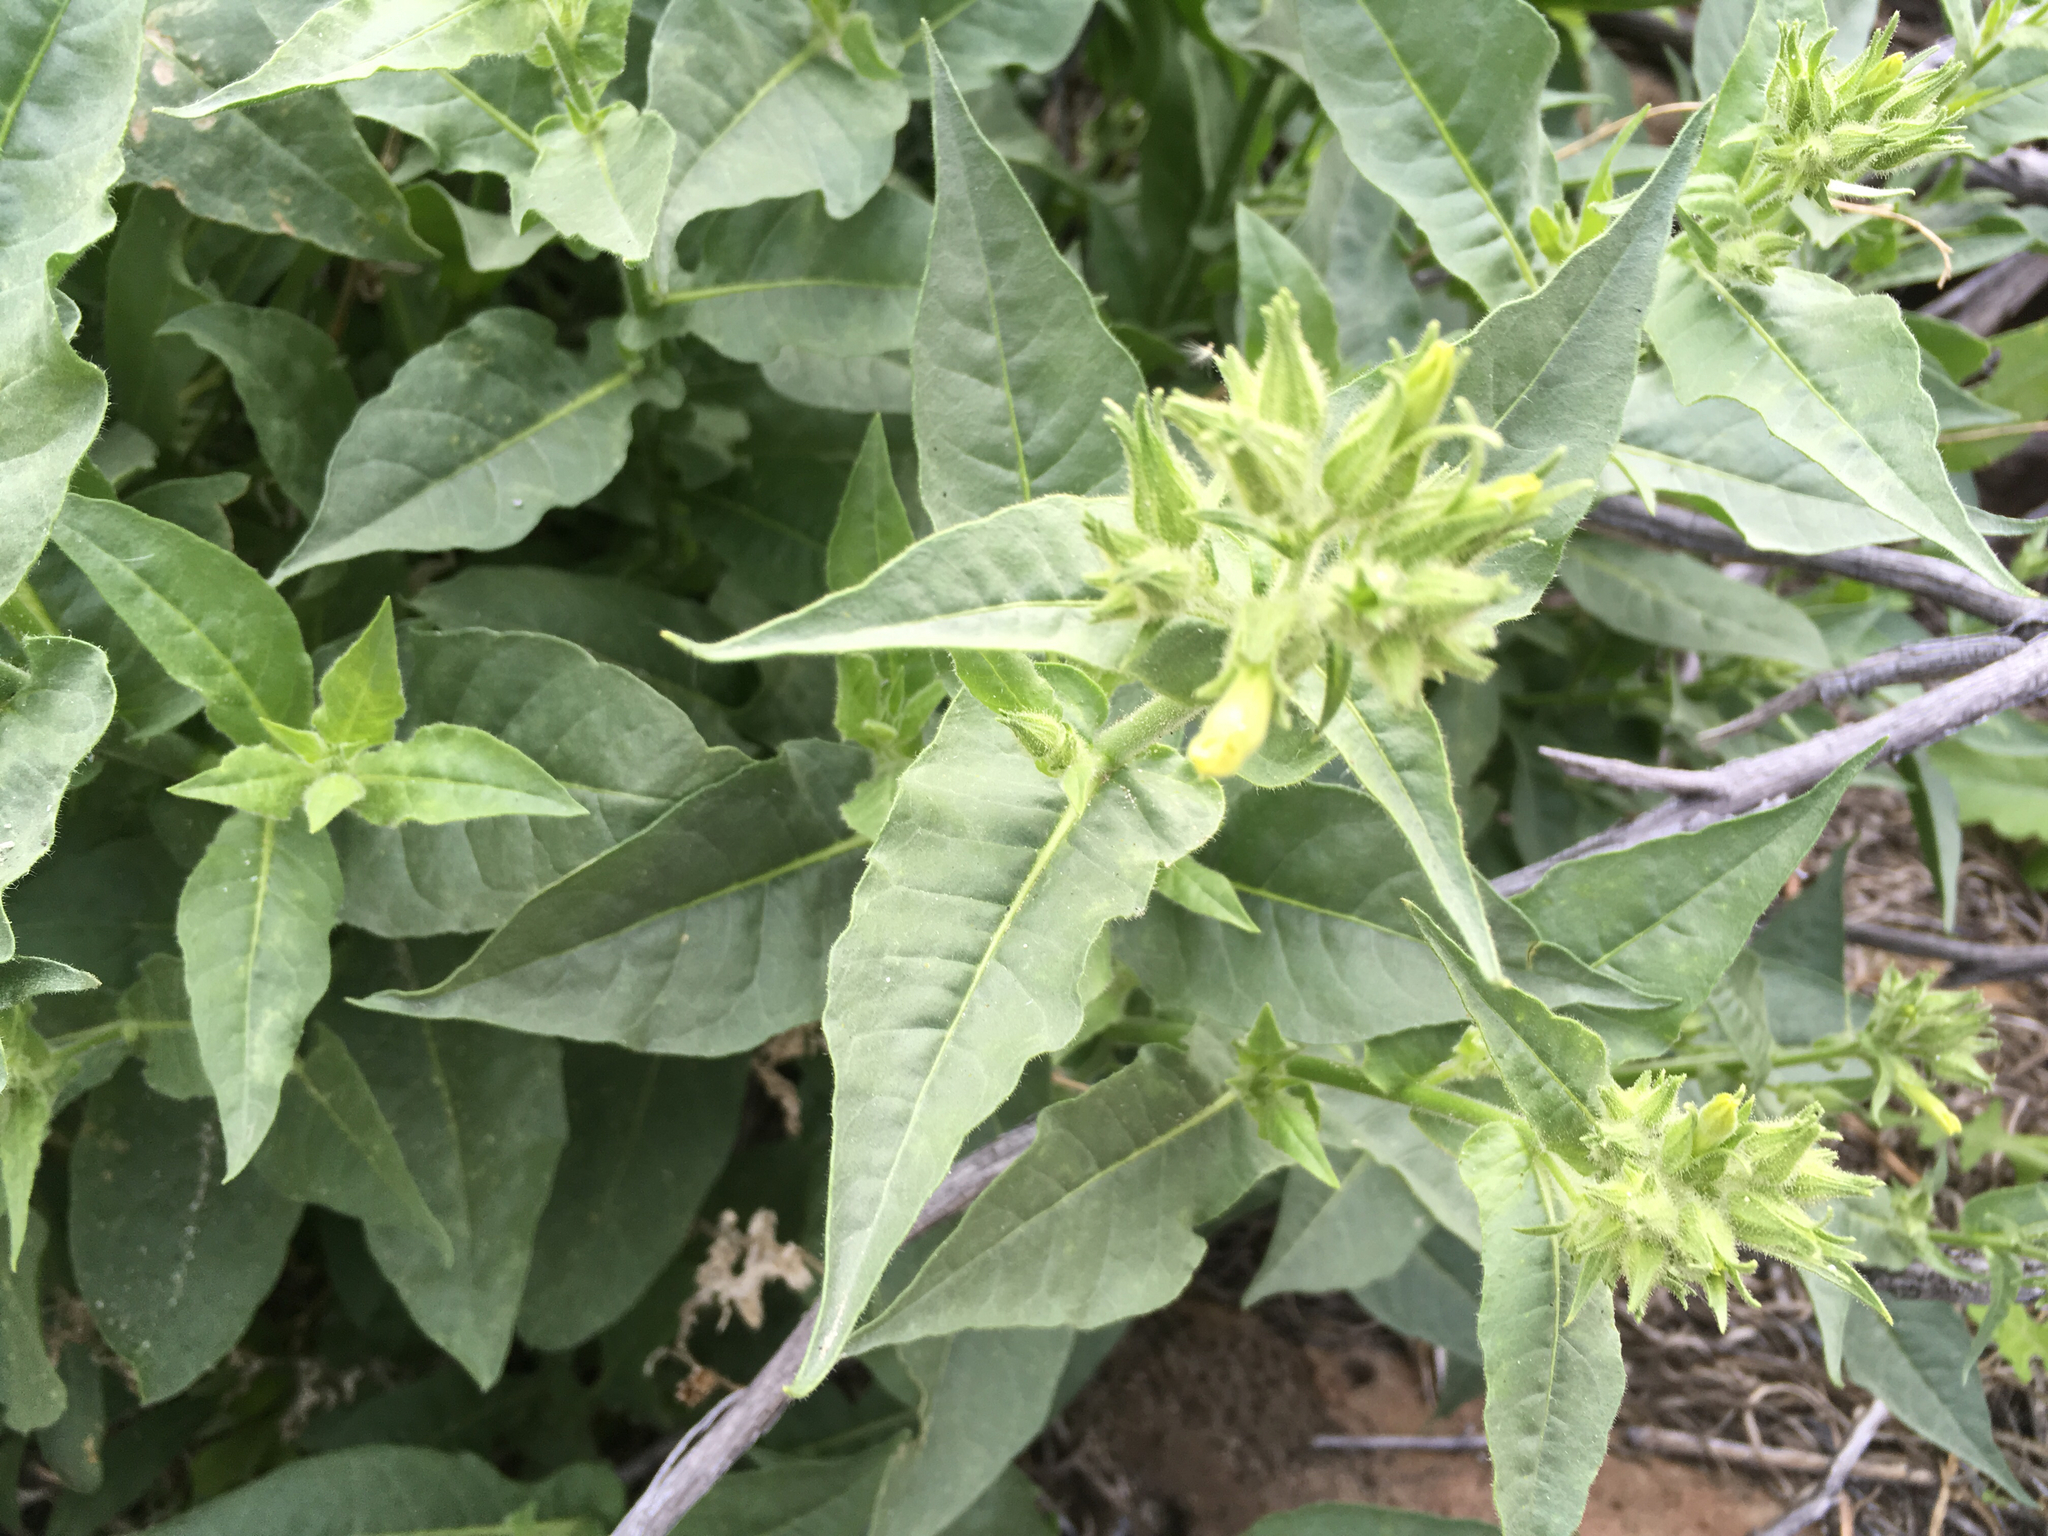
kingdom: Plantae
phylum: Tracheophyta
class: Magnoliopsida
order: Solanales
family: Solanaceae
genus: Nicotiana
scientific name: Nicotiana obtusifolia
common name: Desert tobacco
